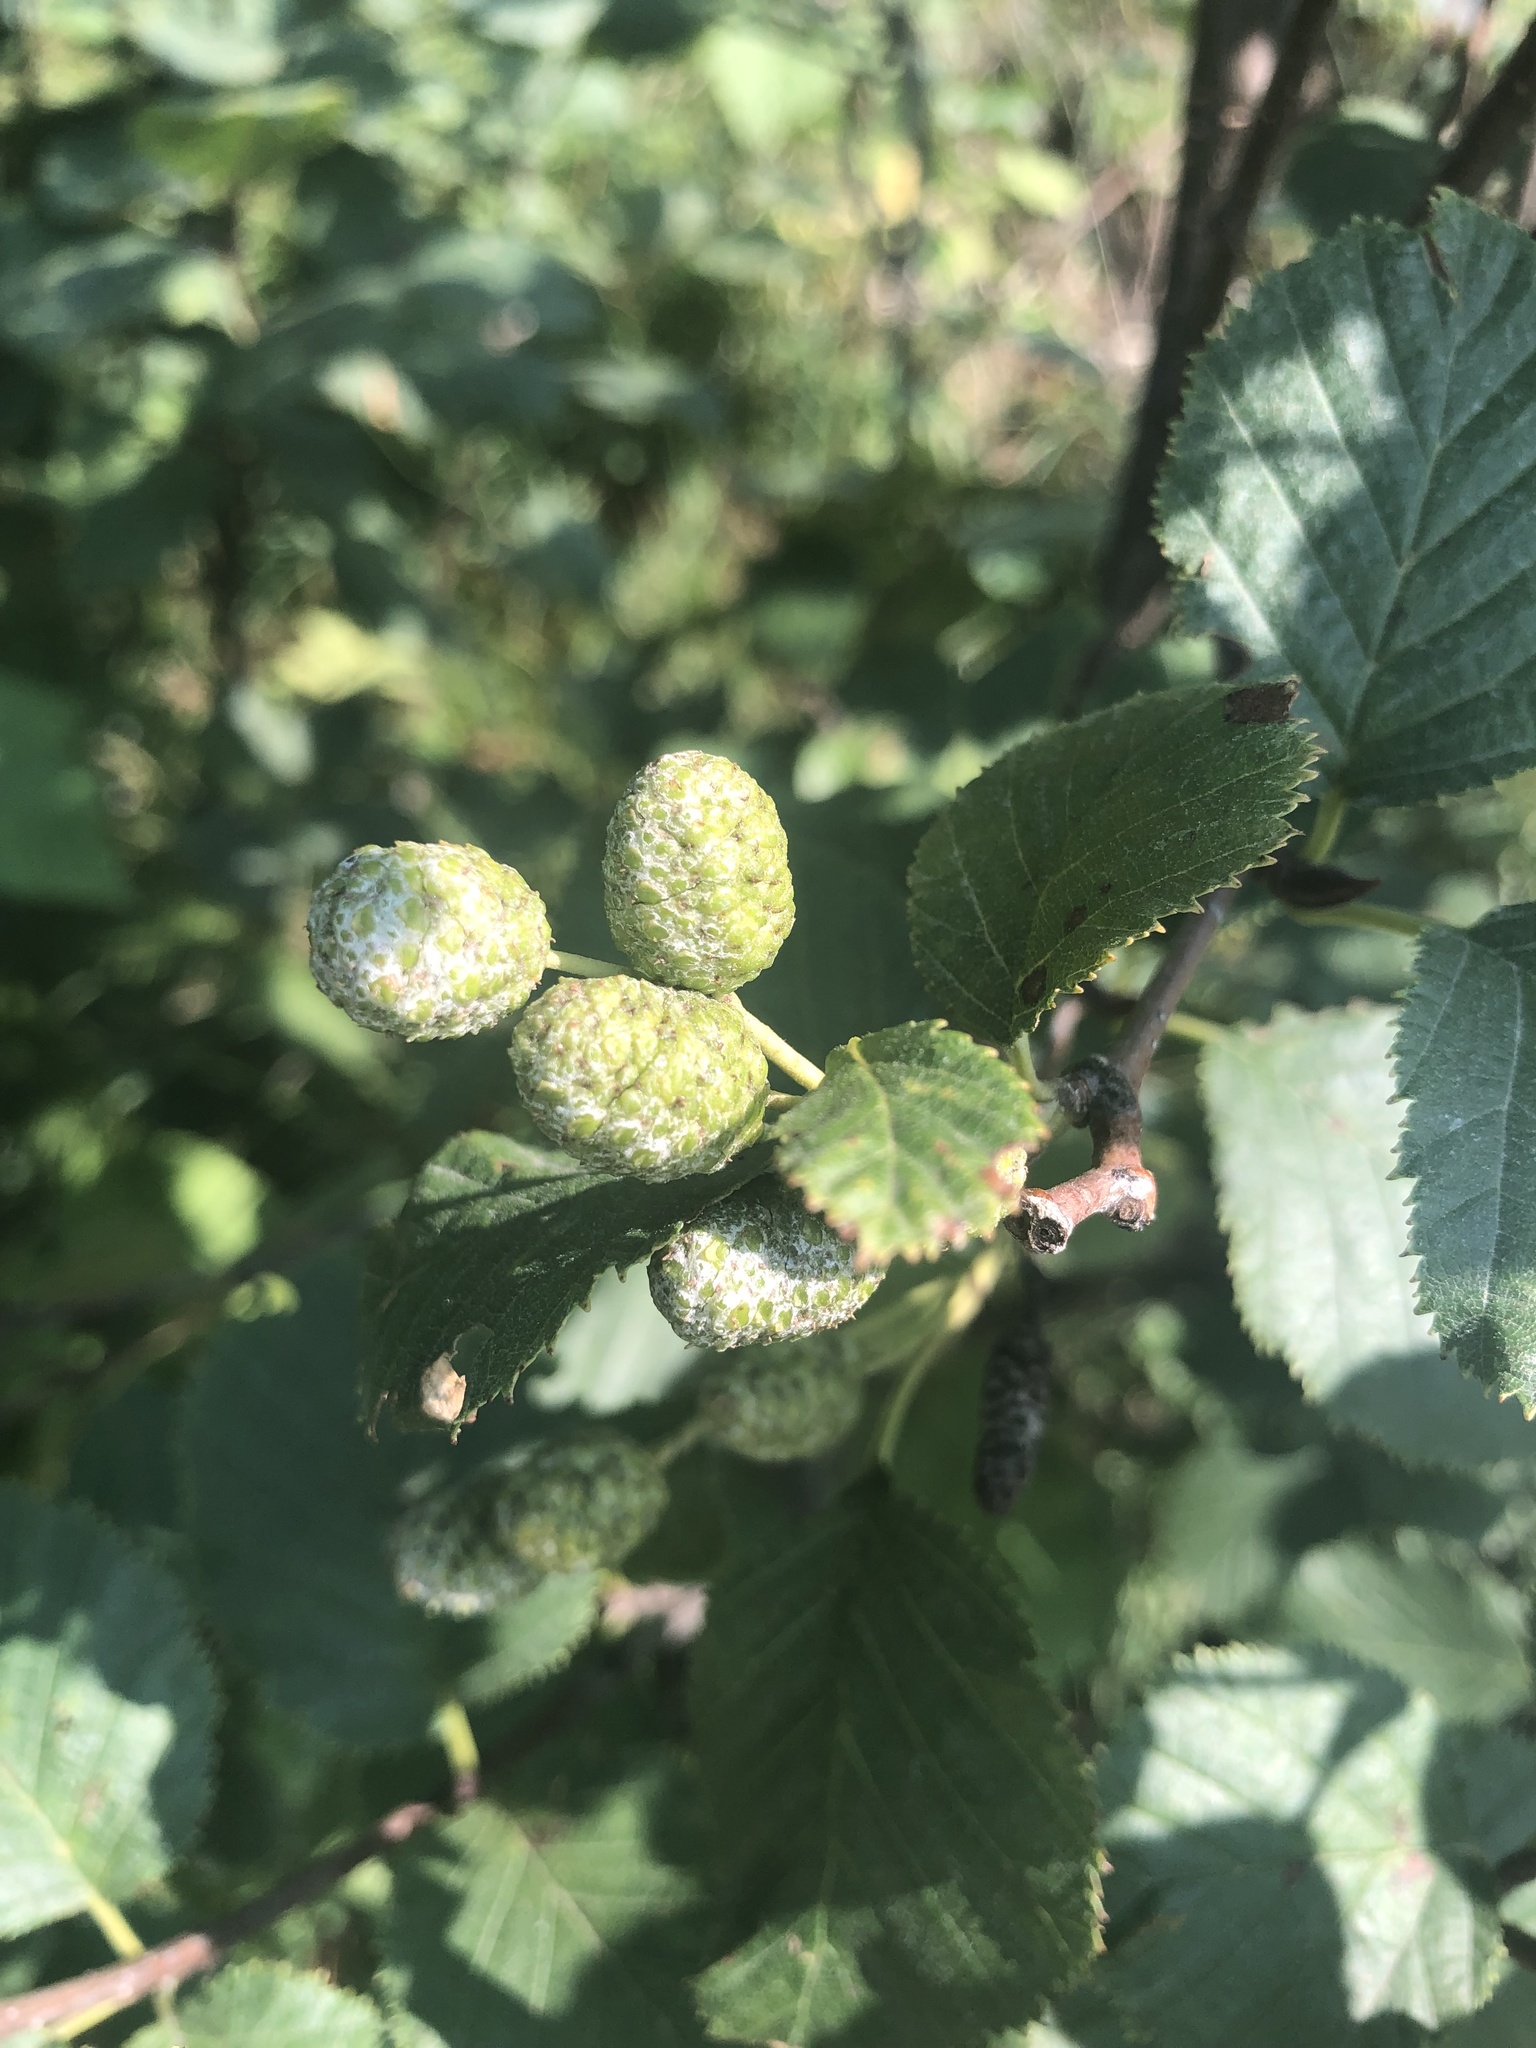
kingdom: Plantae
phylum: Tracheophyta
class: Magnoliopsida
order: Fagales
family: Betulaceae
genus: Alnus
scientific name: Alnus incana
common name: Grey alder
